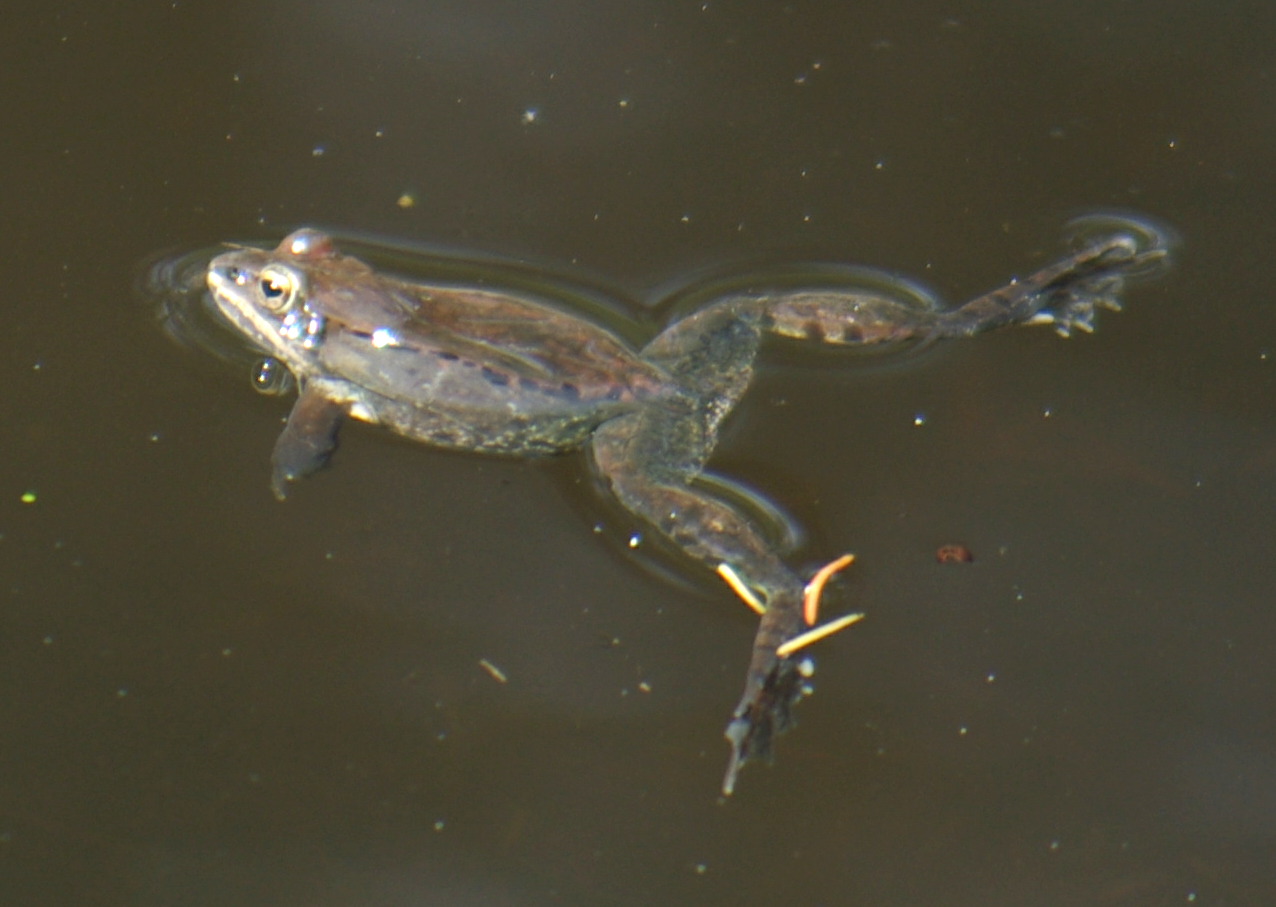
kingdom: Animalia
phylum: Chordata
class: Amphibia
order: Anura
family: Ranidae
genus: Lithobates
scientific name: Lithobates sylvaticus
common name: Wood frog
